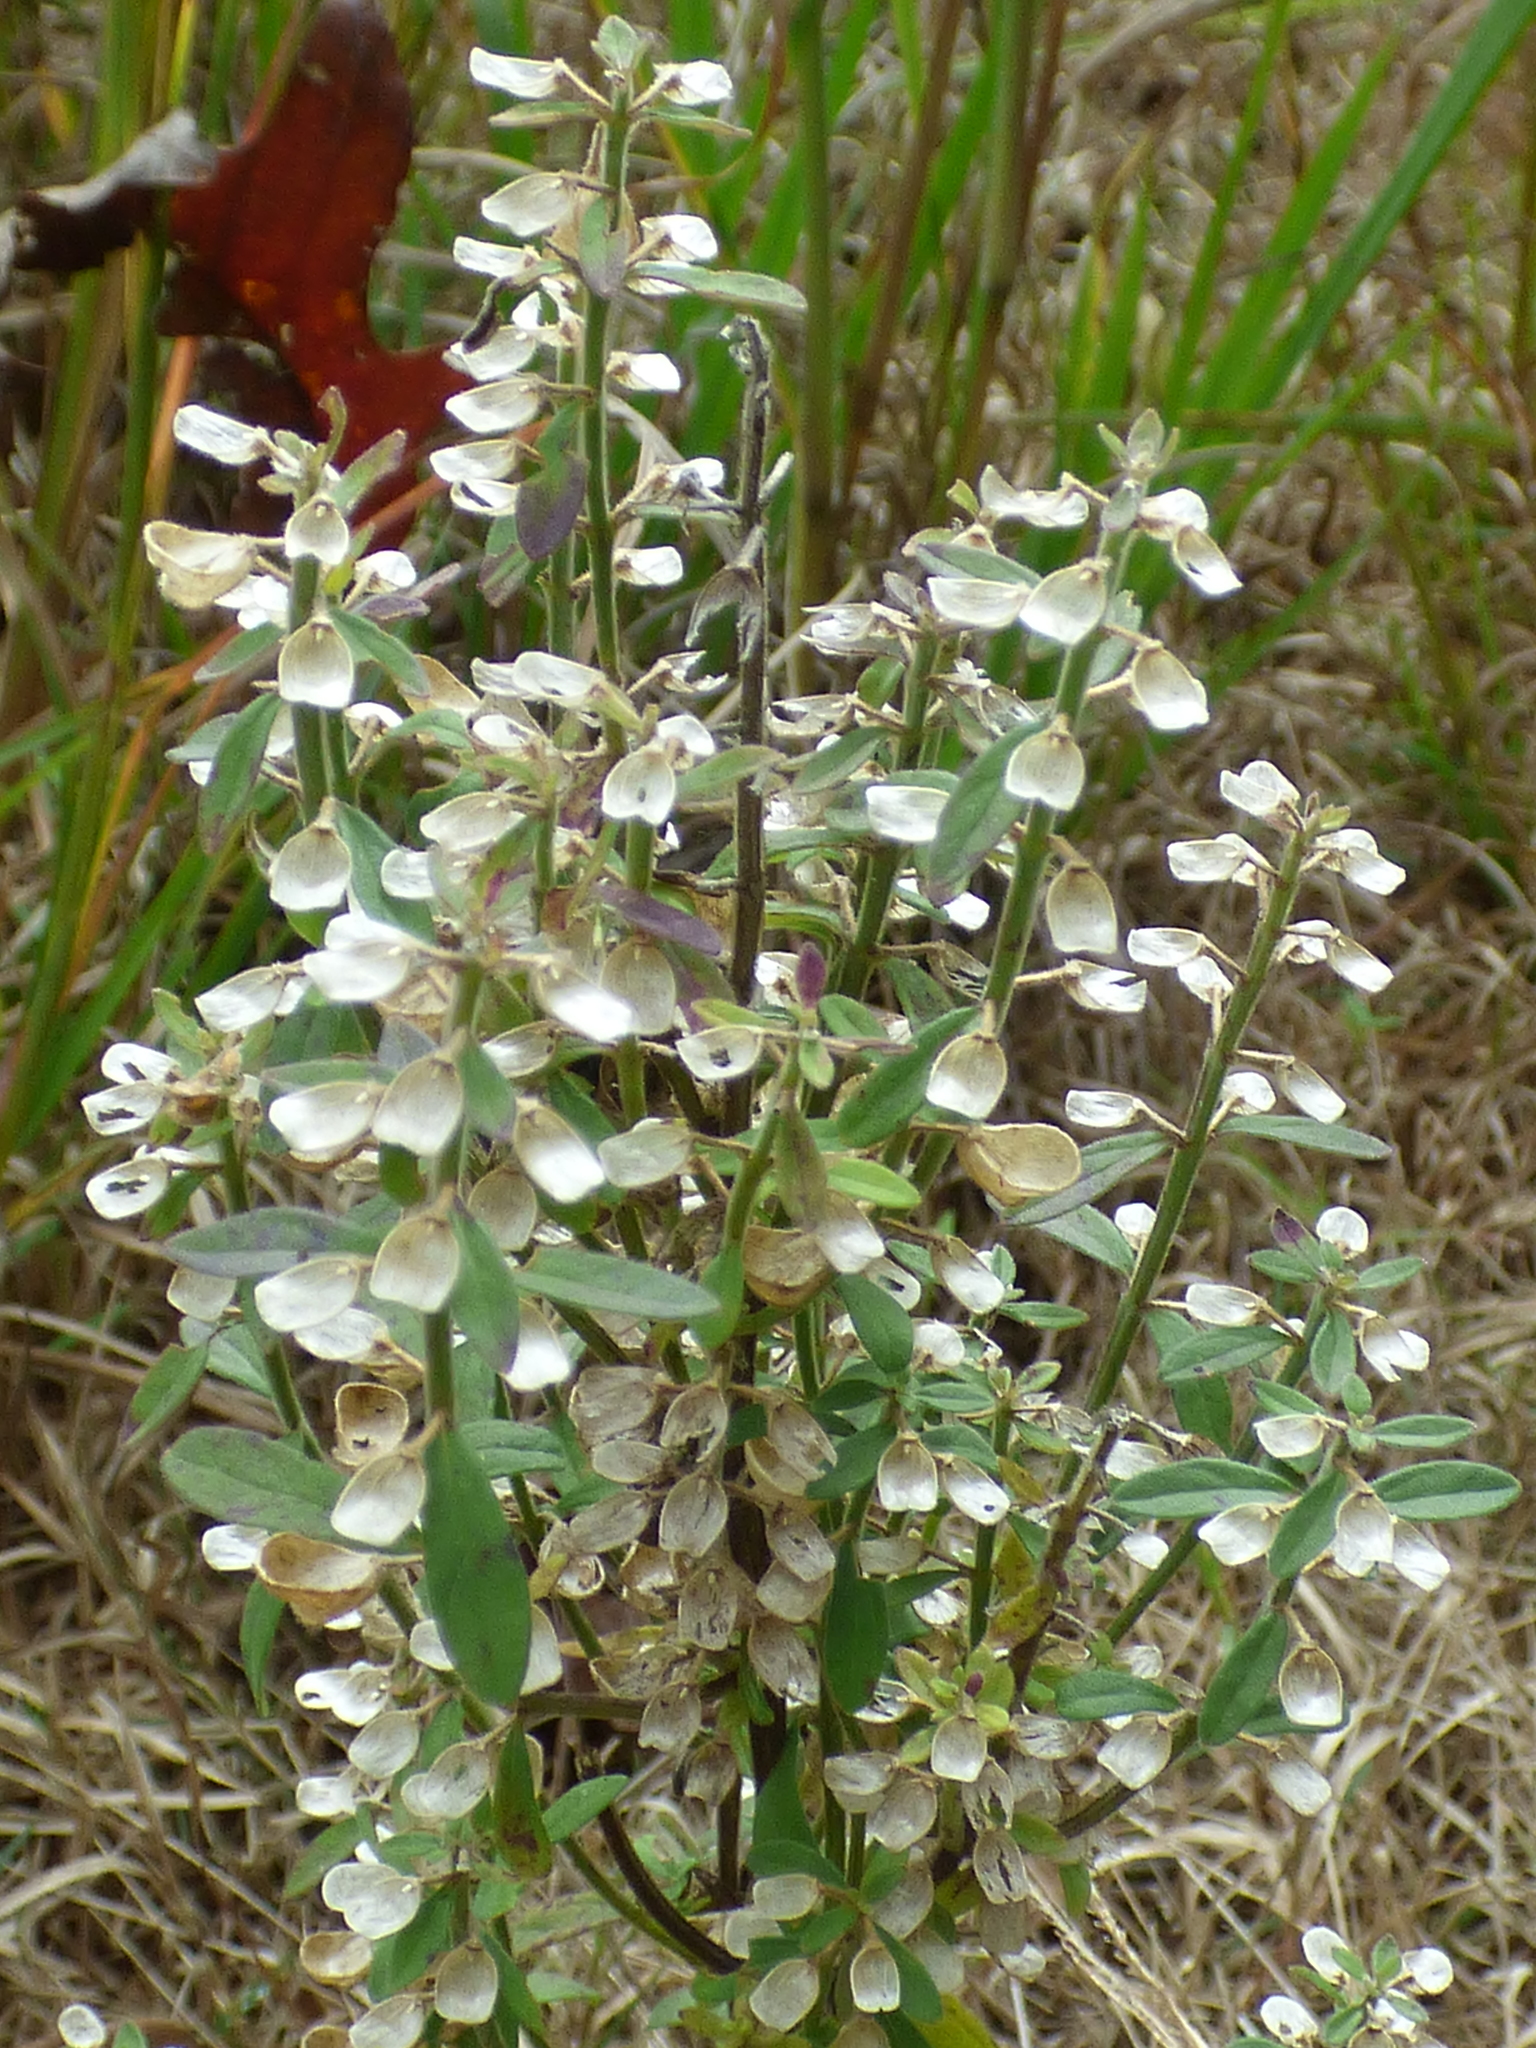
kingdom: Plantae
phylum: Tracheophyta
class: Magnoliopsida
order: Lamiales
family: Lamiaceae
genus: Scutellaria
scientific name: Scutellaria integrifolia
